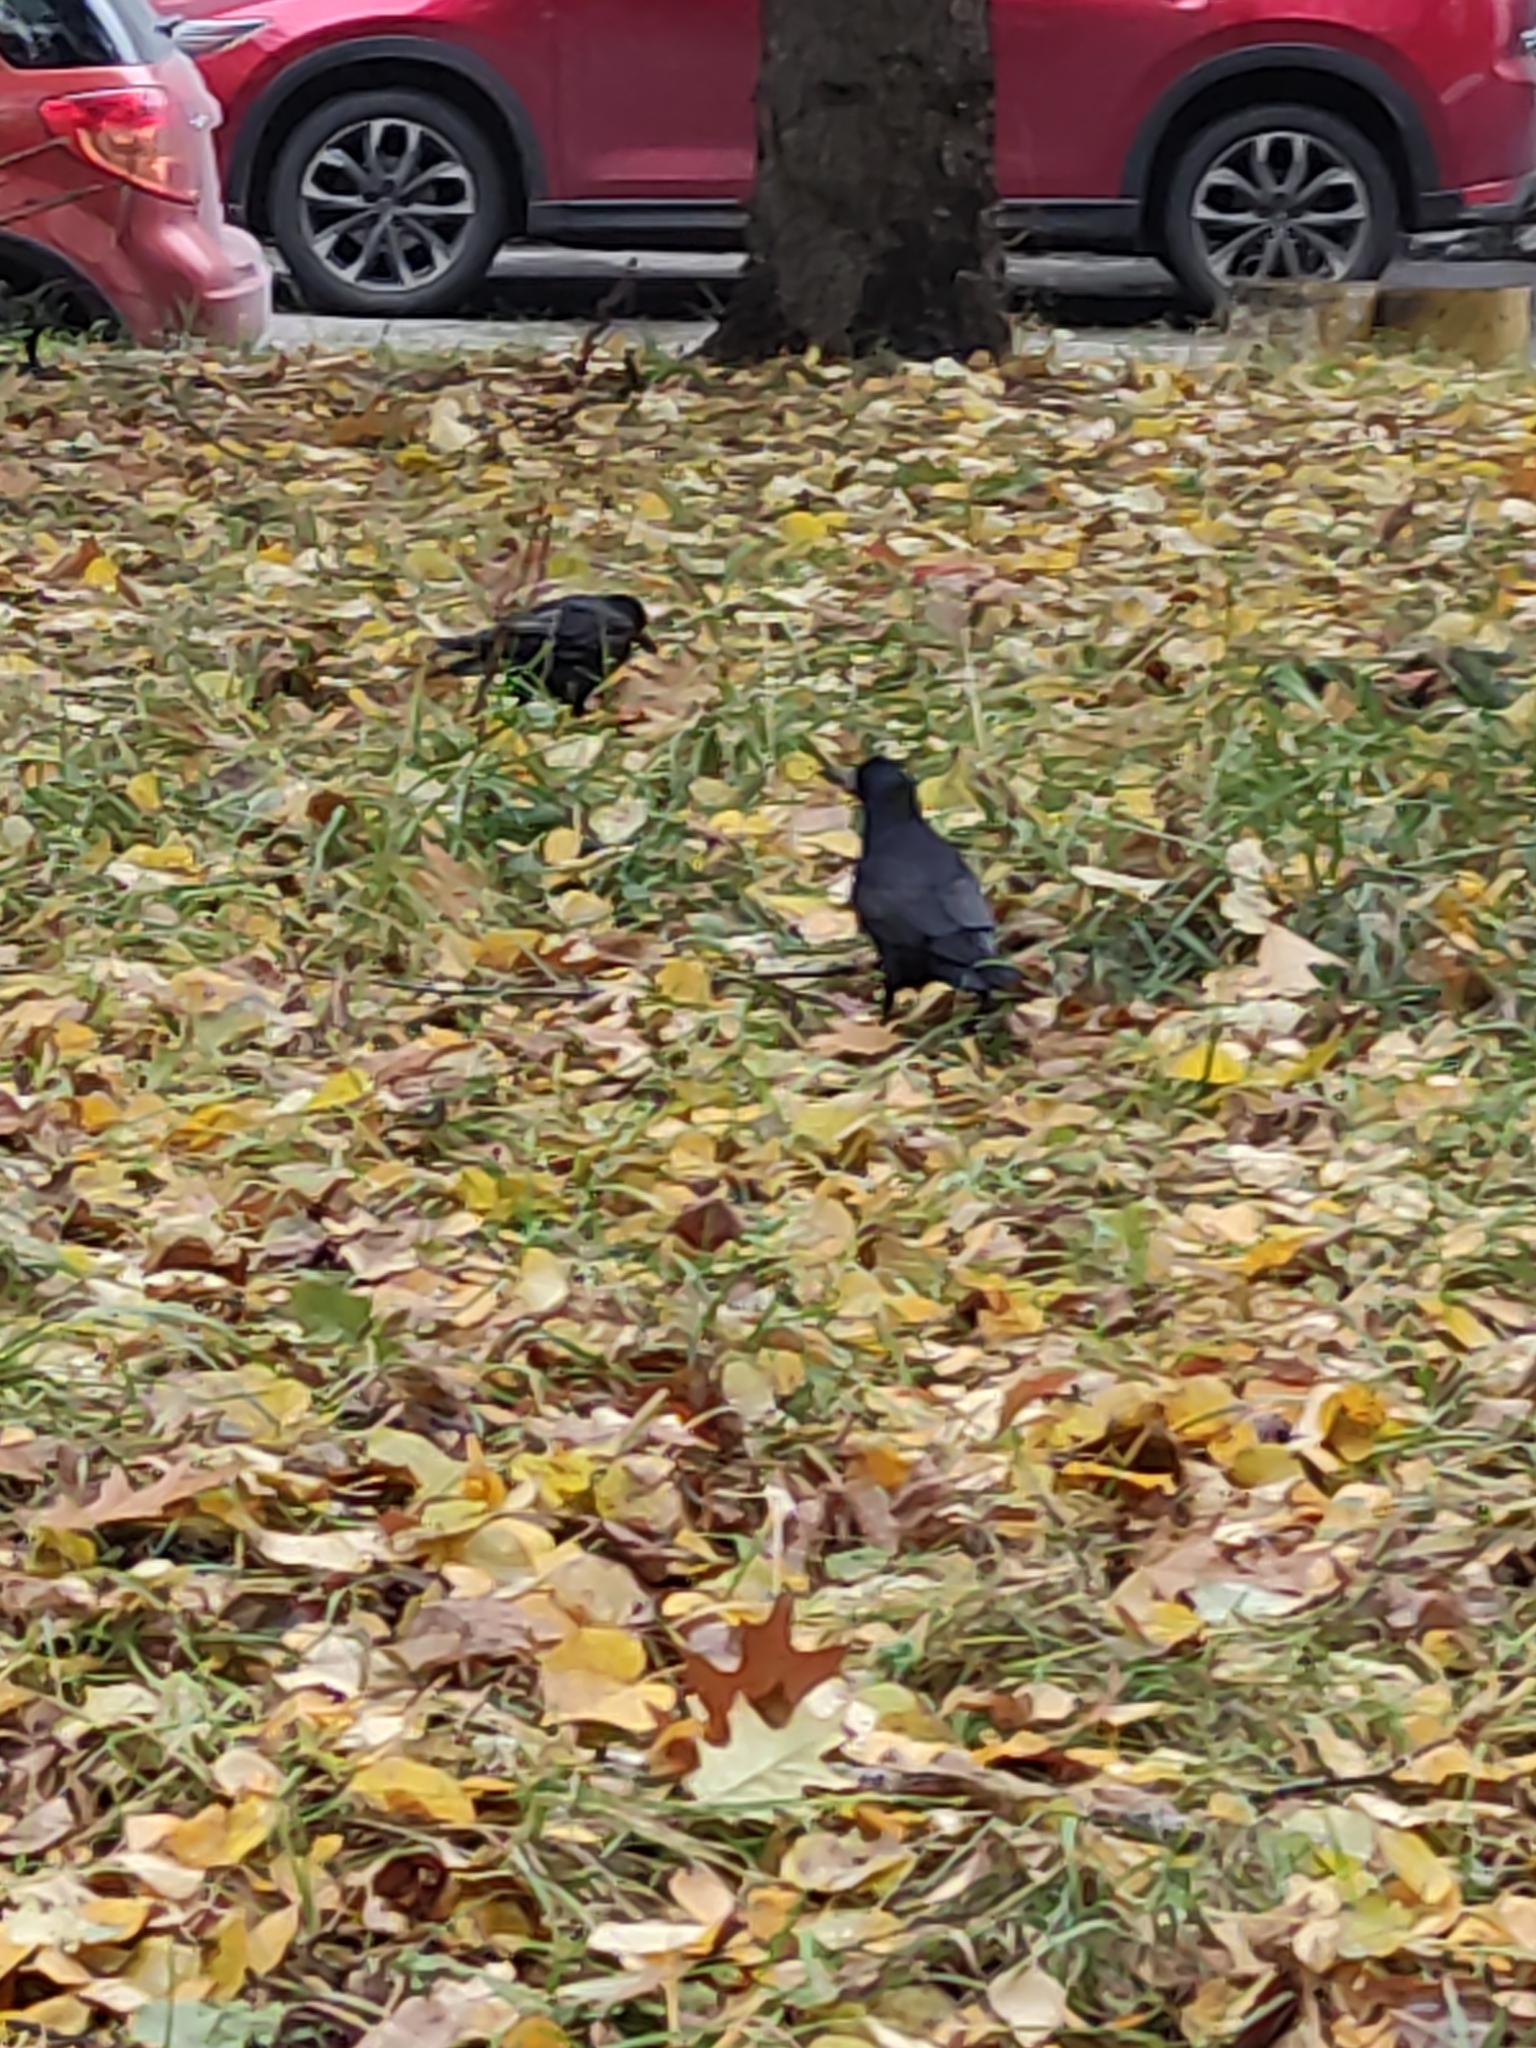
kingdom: Animalia
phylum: Chordata
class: Aves
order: Passeriformes
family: Corvidae
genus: Corvus
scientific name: Corvus frugilegus
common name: Rook
